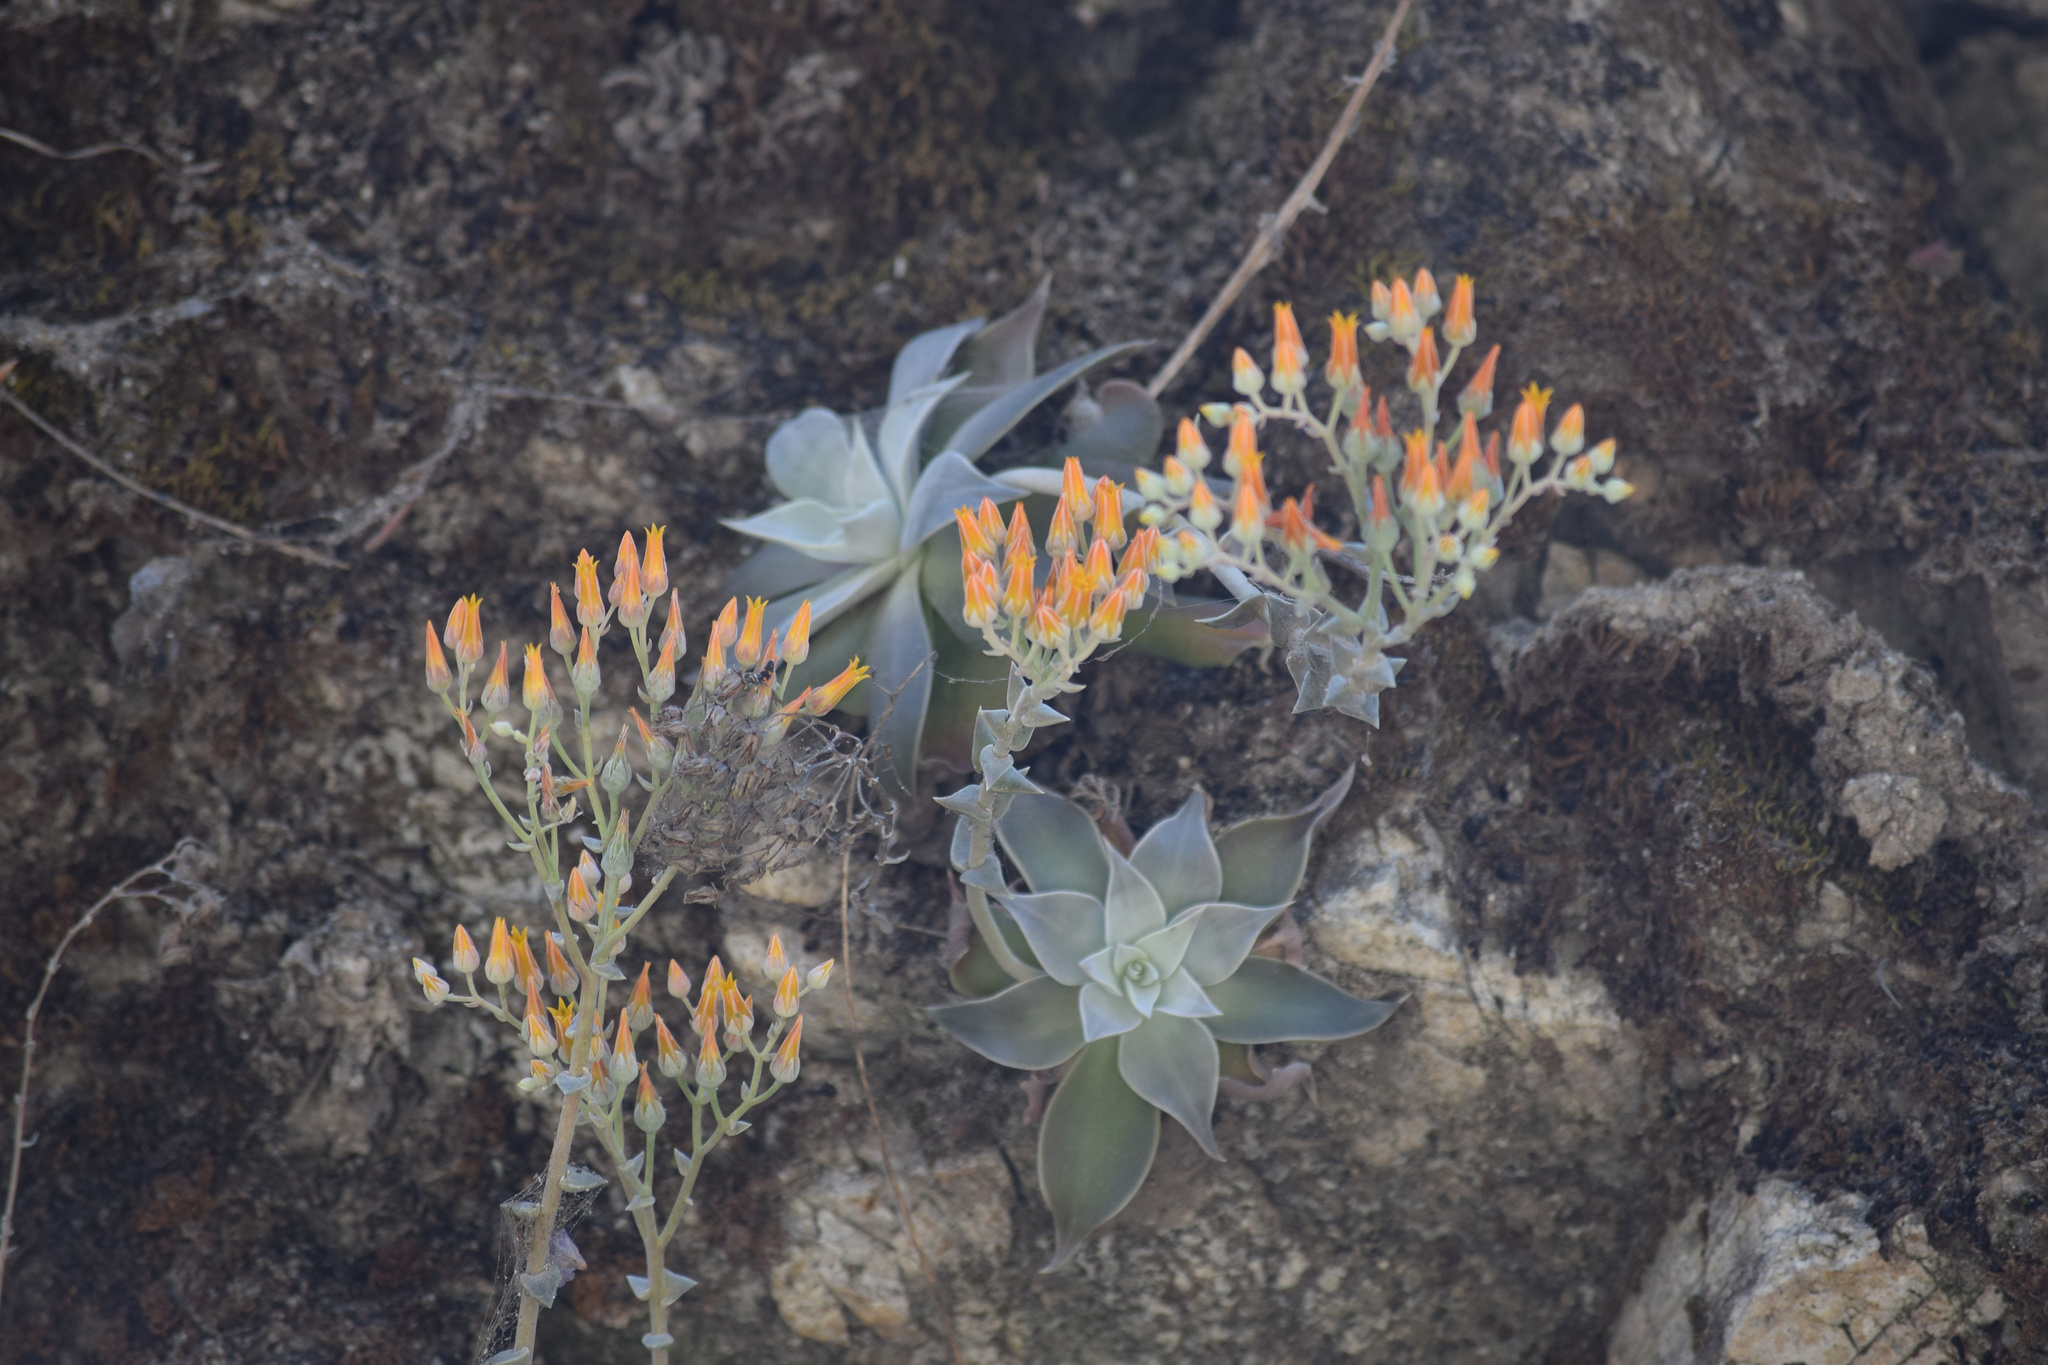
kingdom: Plantae
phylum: Tracheophyta
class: Magnoliopsida
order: Saxifragales
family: Crassulaceae
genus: Dudleya
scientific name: Dudleya cymosa
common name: Canyon dudleya
